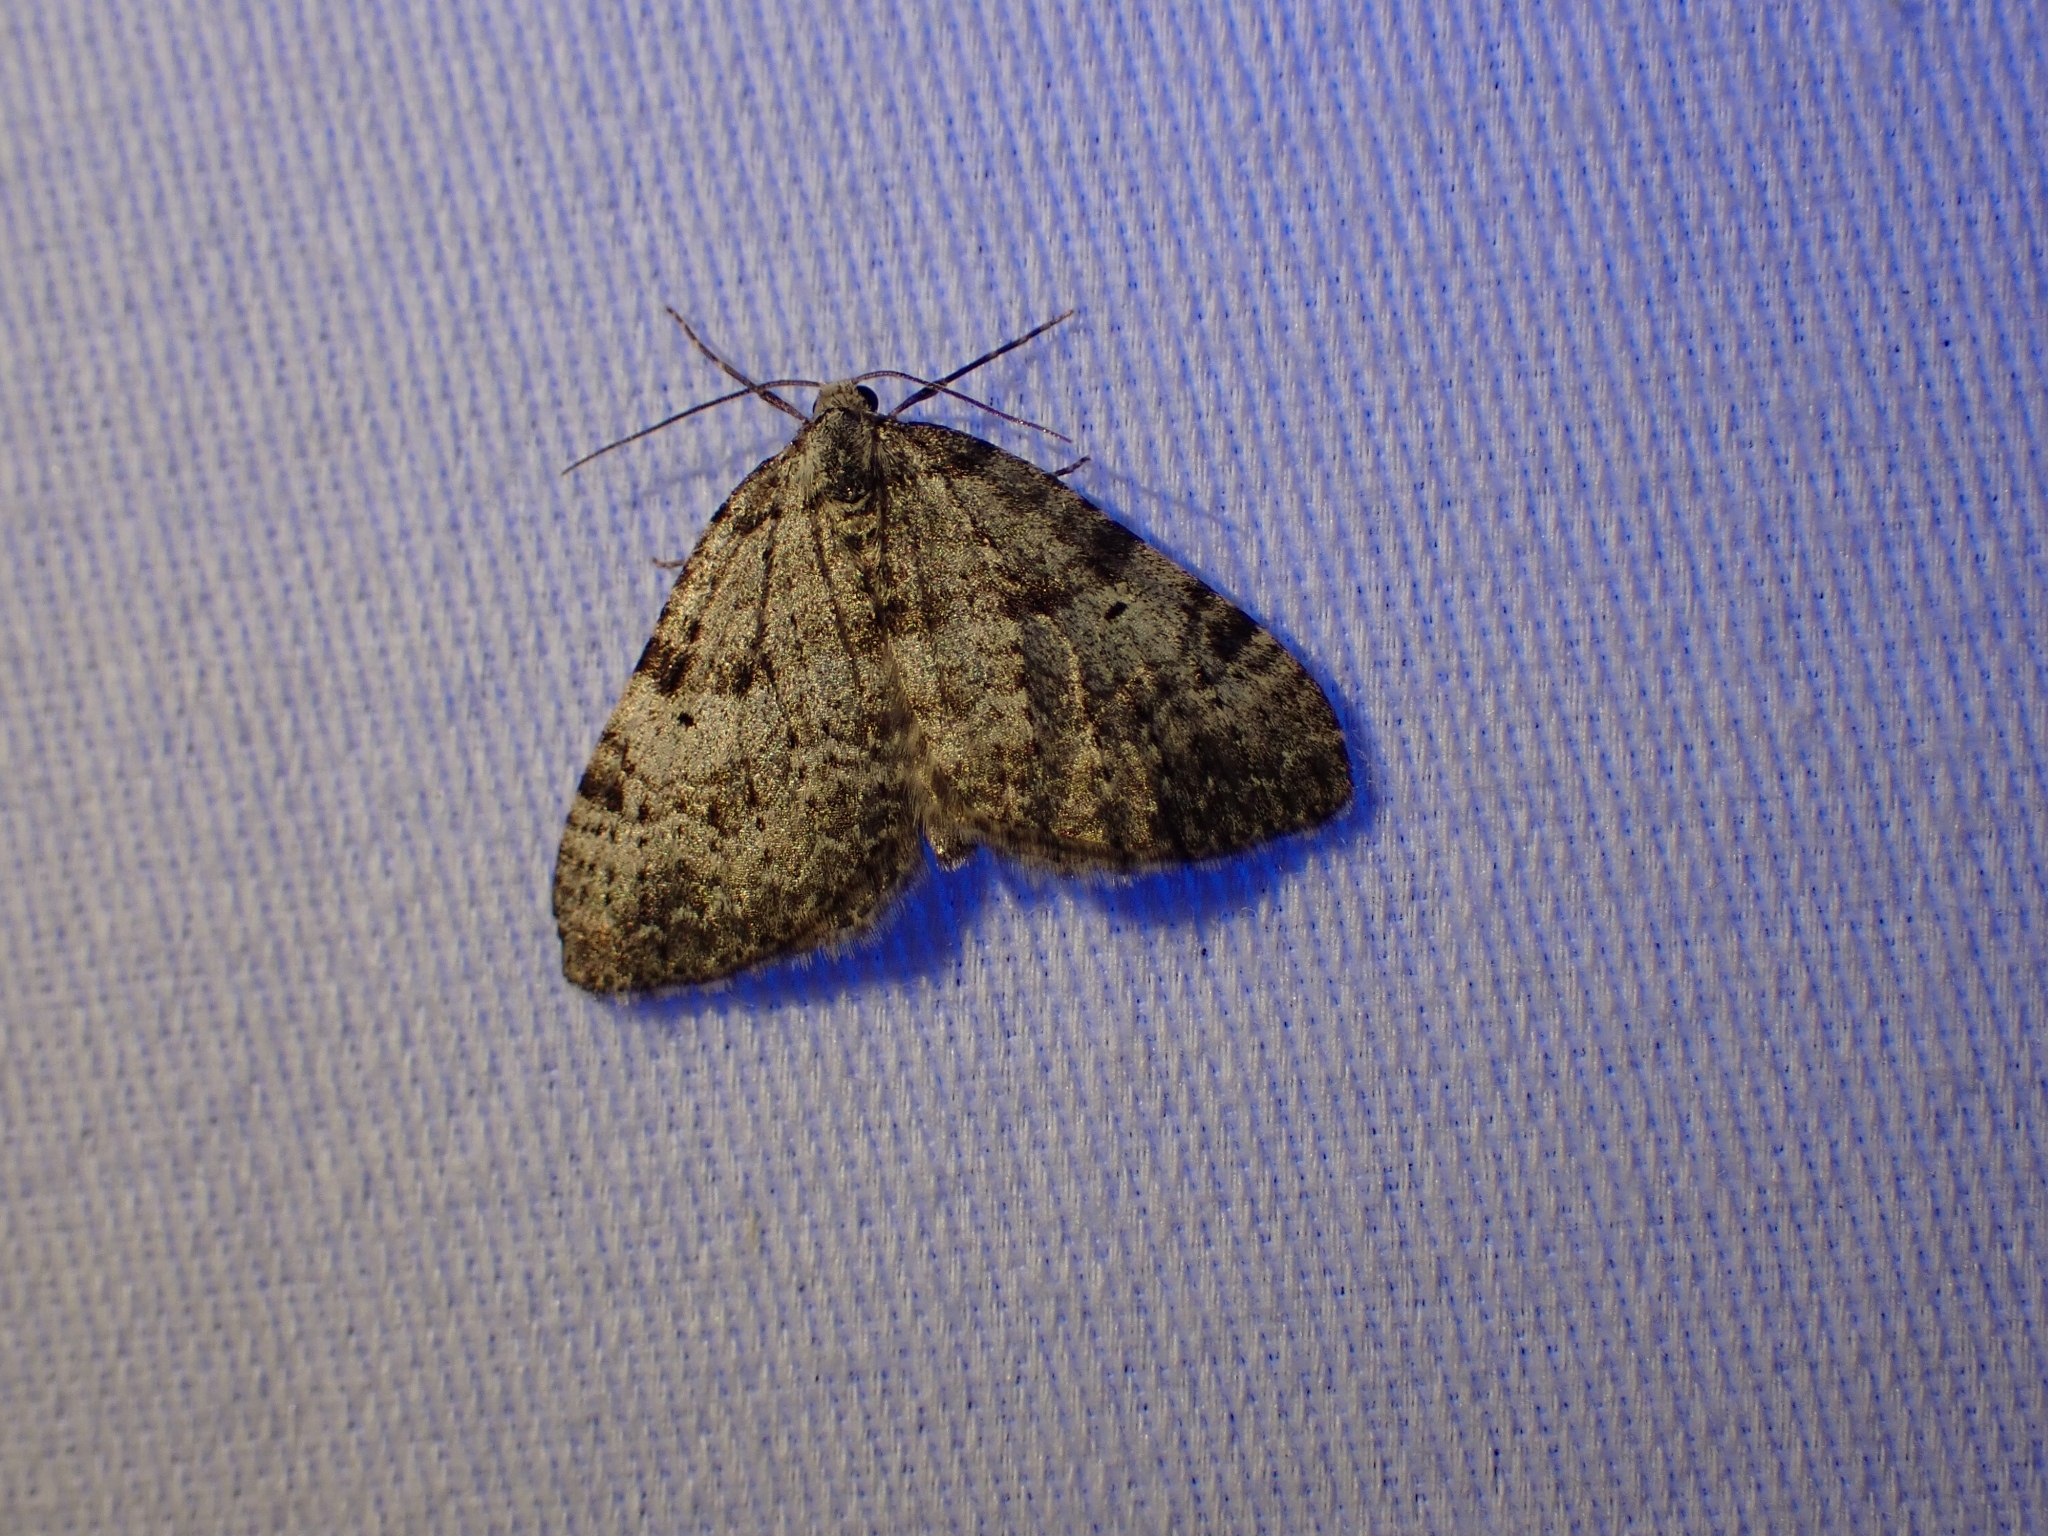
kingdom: Animalia
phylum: Arthropoda
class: Insecta
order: Lepidoptera
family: Geometridae
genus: Perizoma
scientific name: Perizoma curvilinea
